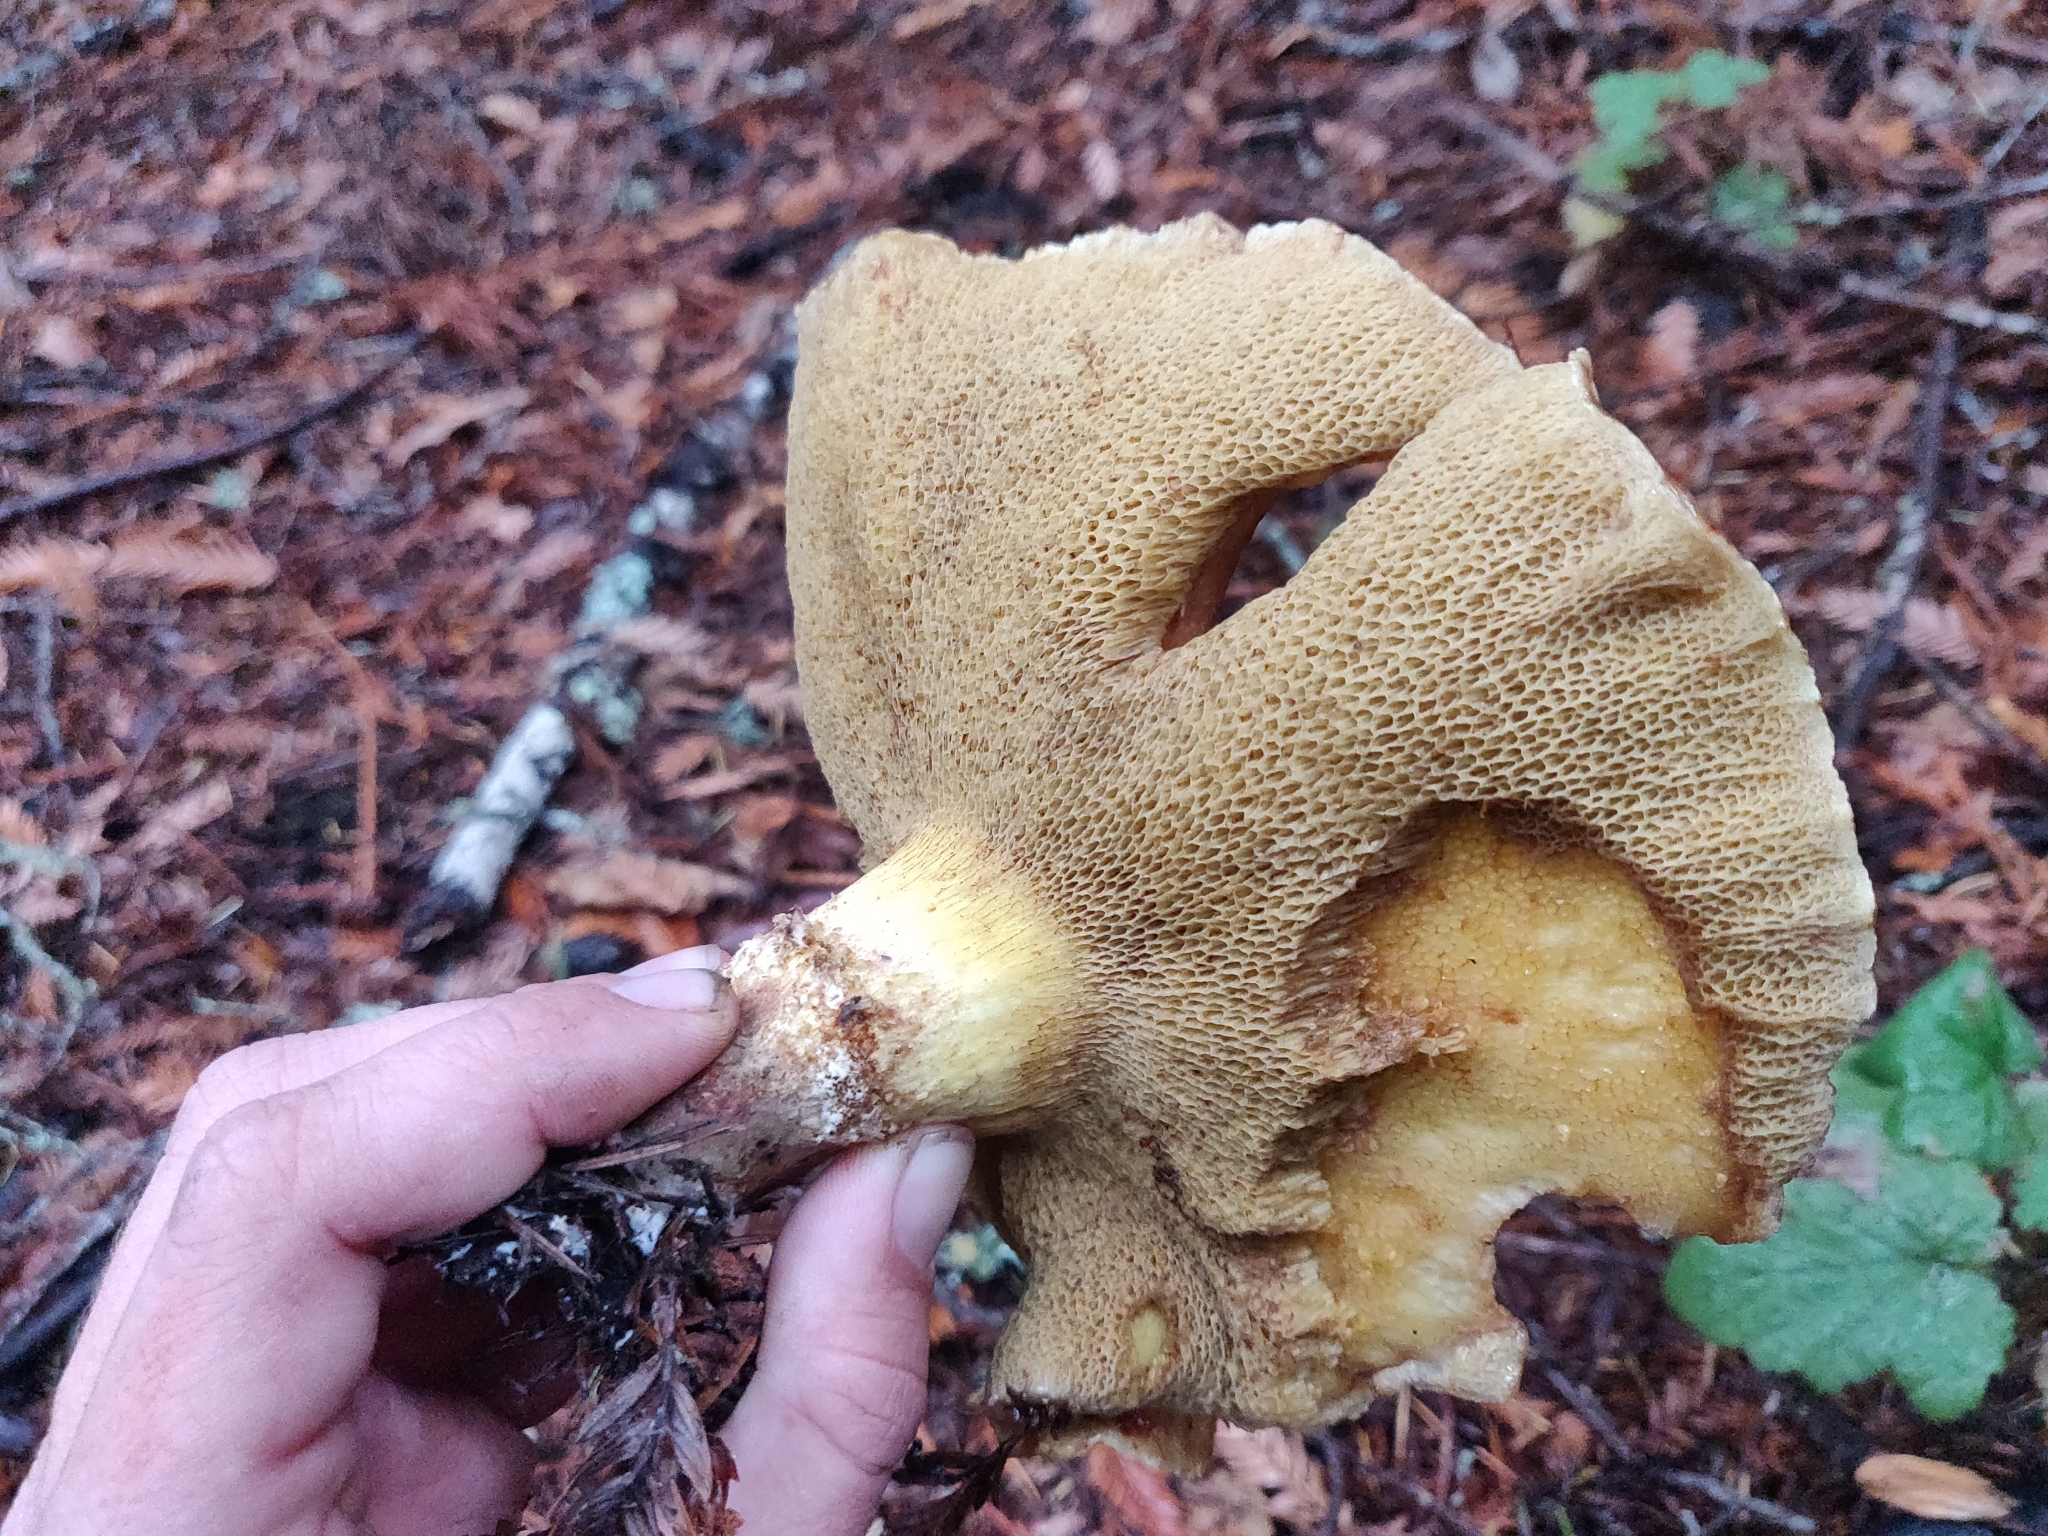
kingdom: Fungi
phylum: Basidiomycota
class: Agaricomycetes
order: Boletales
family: Suillaceae
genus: Suillus
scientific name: Suillus caerulescens
